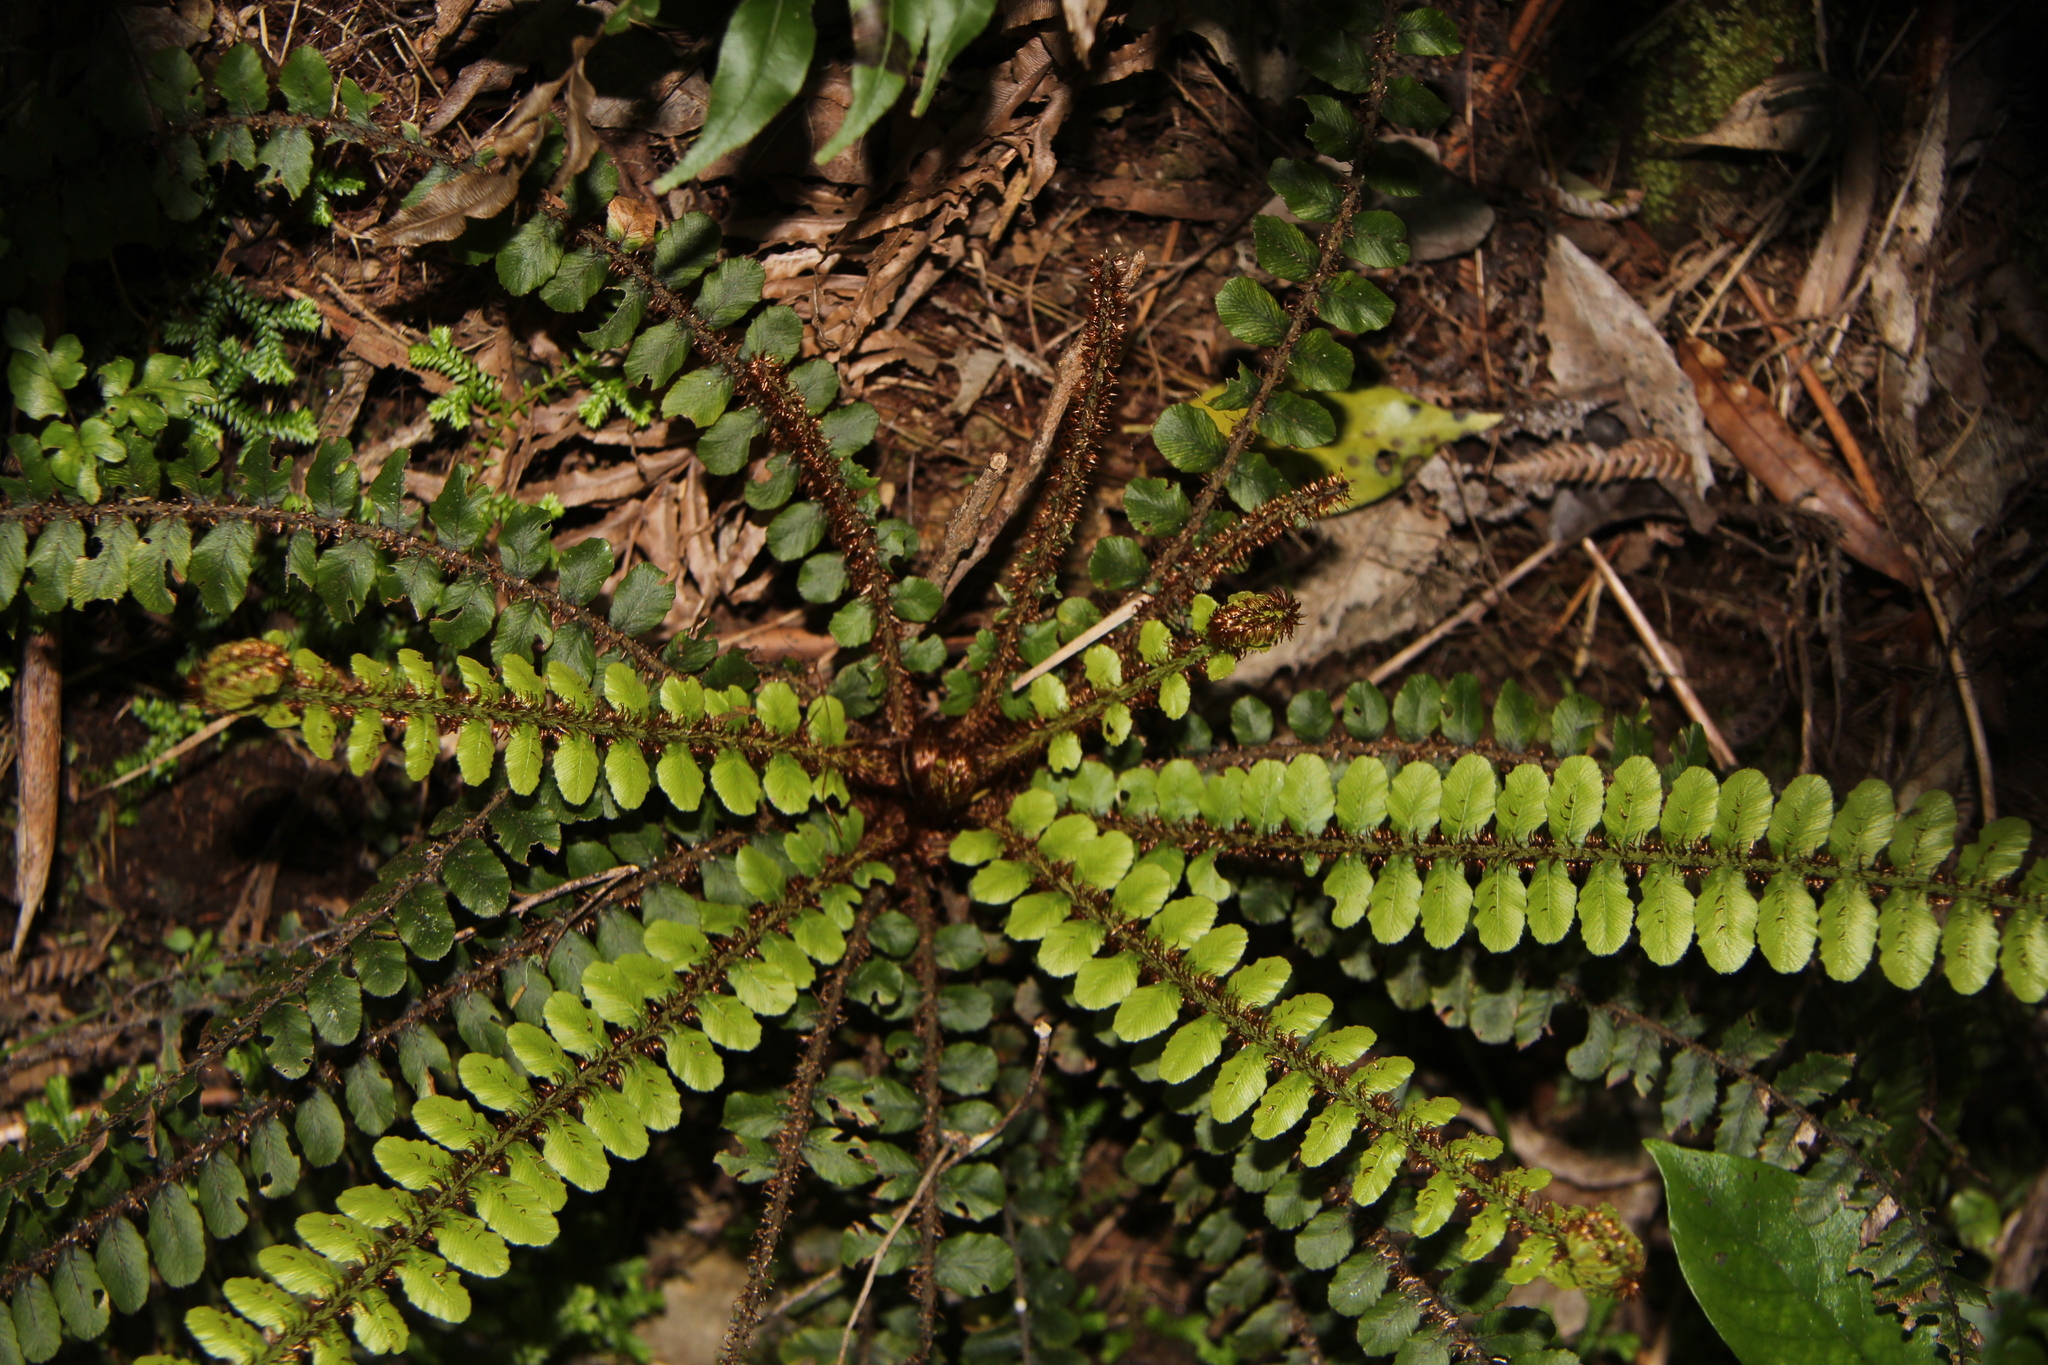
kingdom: Plantae
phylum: Tracheophyta
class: Polypodiopsida
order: Polypodiales
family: Blechnaceae
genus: Cranfillia
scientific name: Cranfillia fluviatilis
